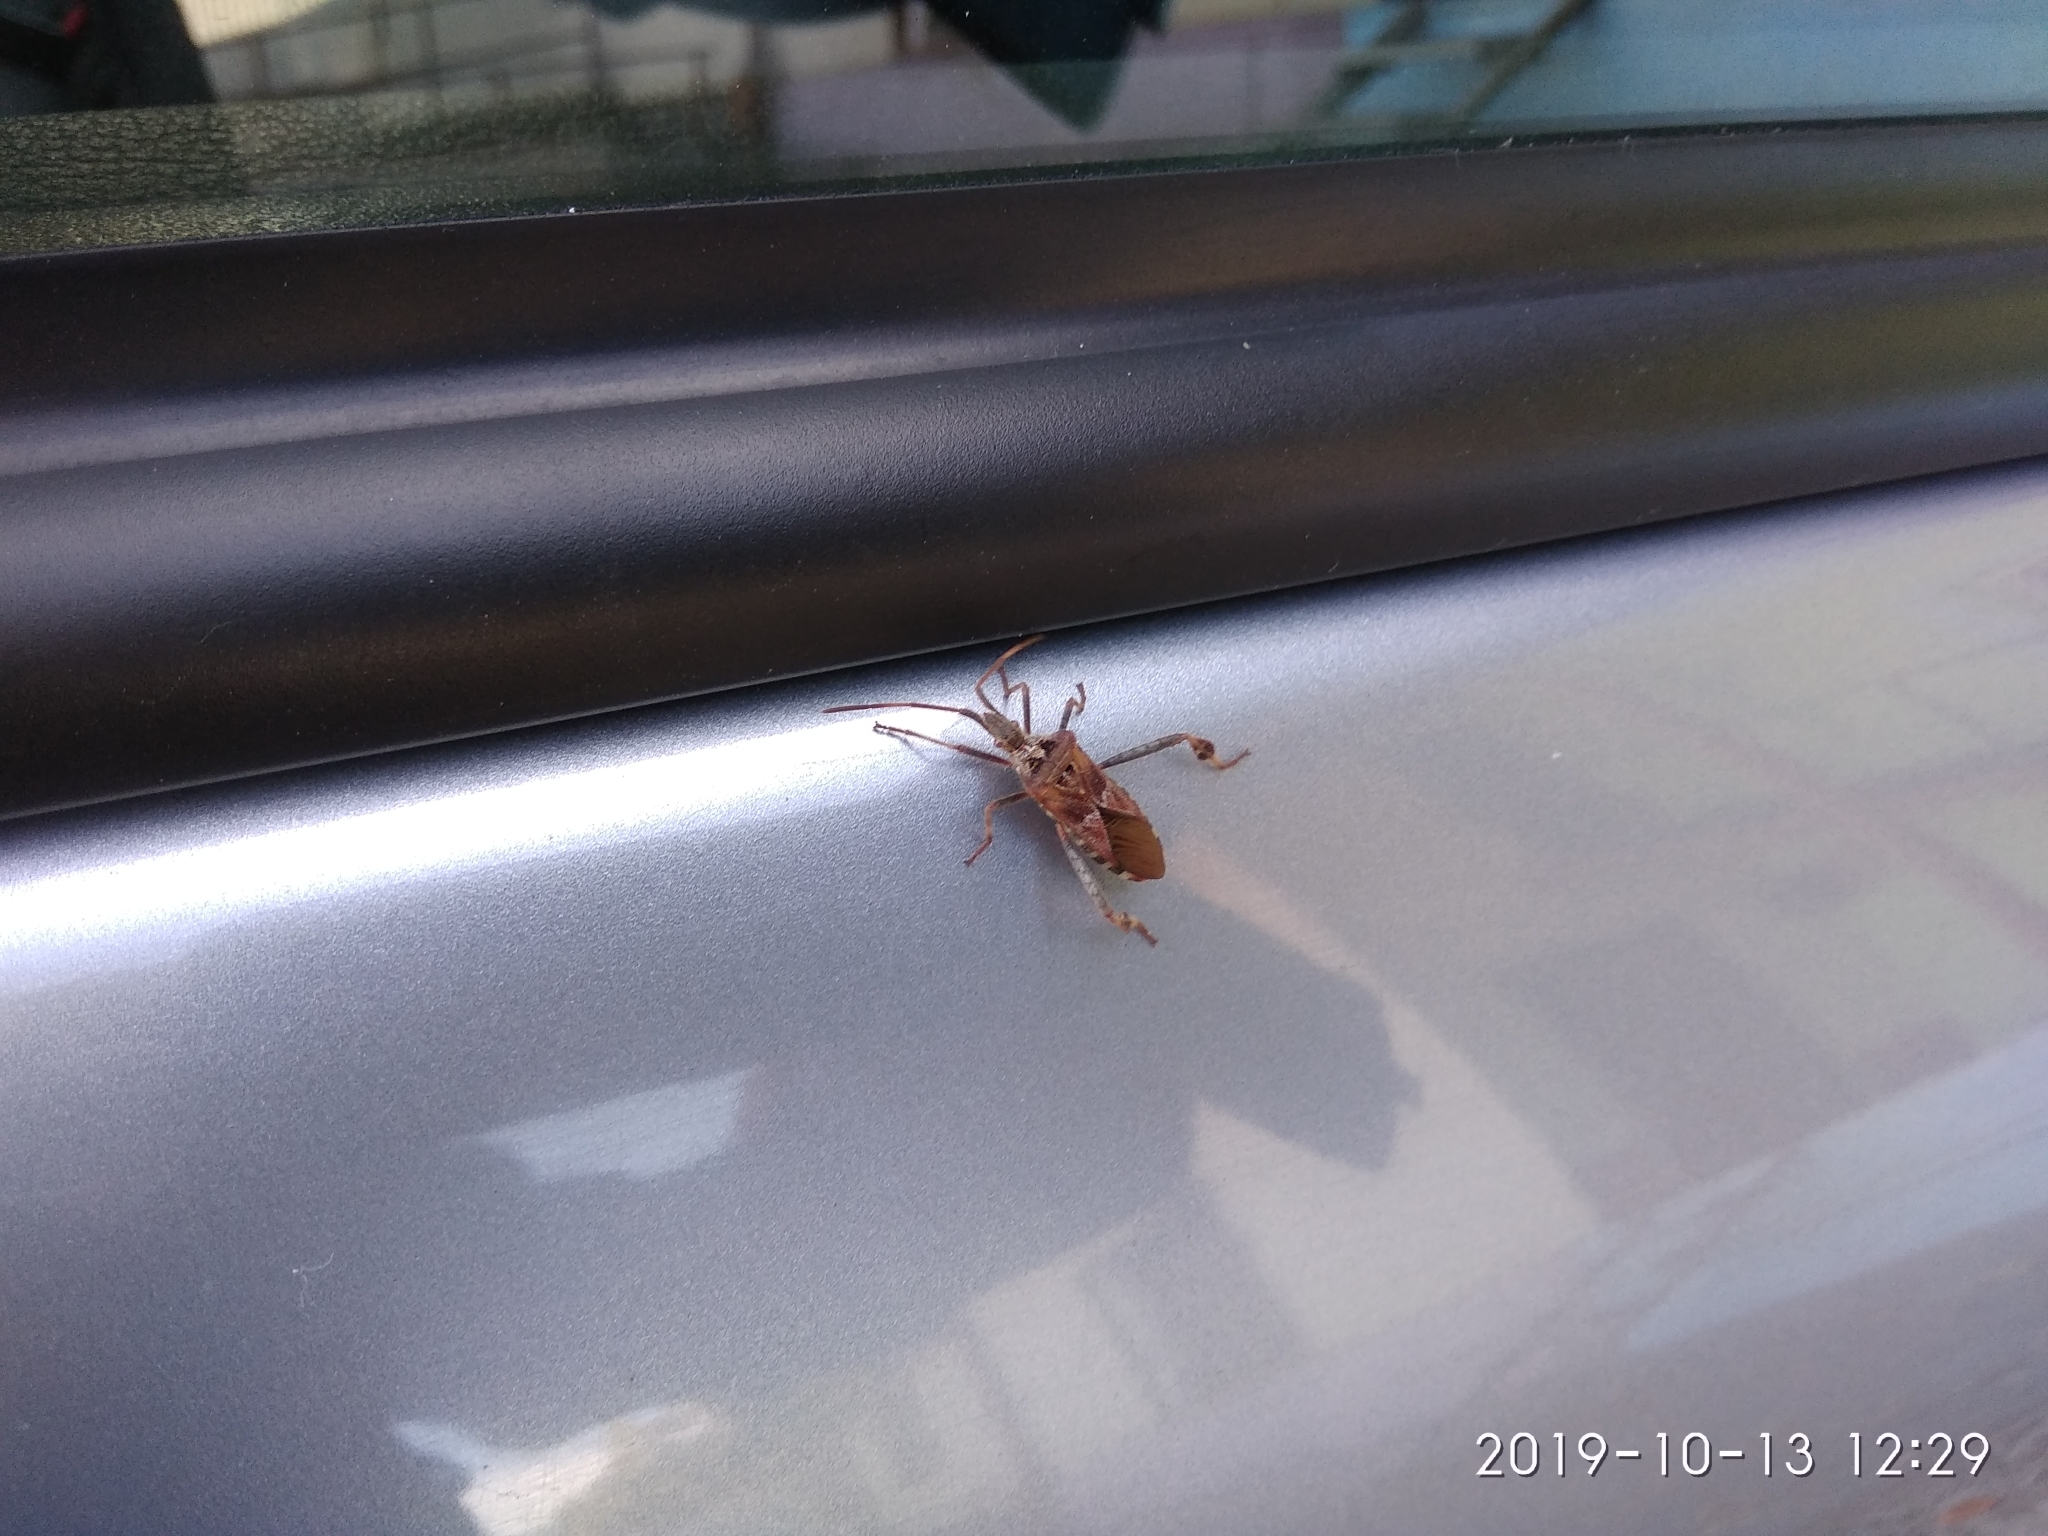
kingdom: Animalia
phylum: Arthropoda
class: Insecta
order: Hemiptera
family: Coreidae
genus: Leptoglossus
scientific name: Leptoglossus occidentalis
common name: Western conifer-seed bug
